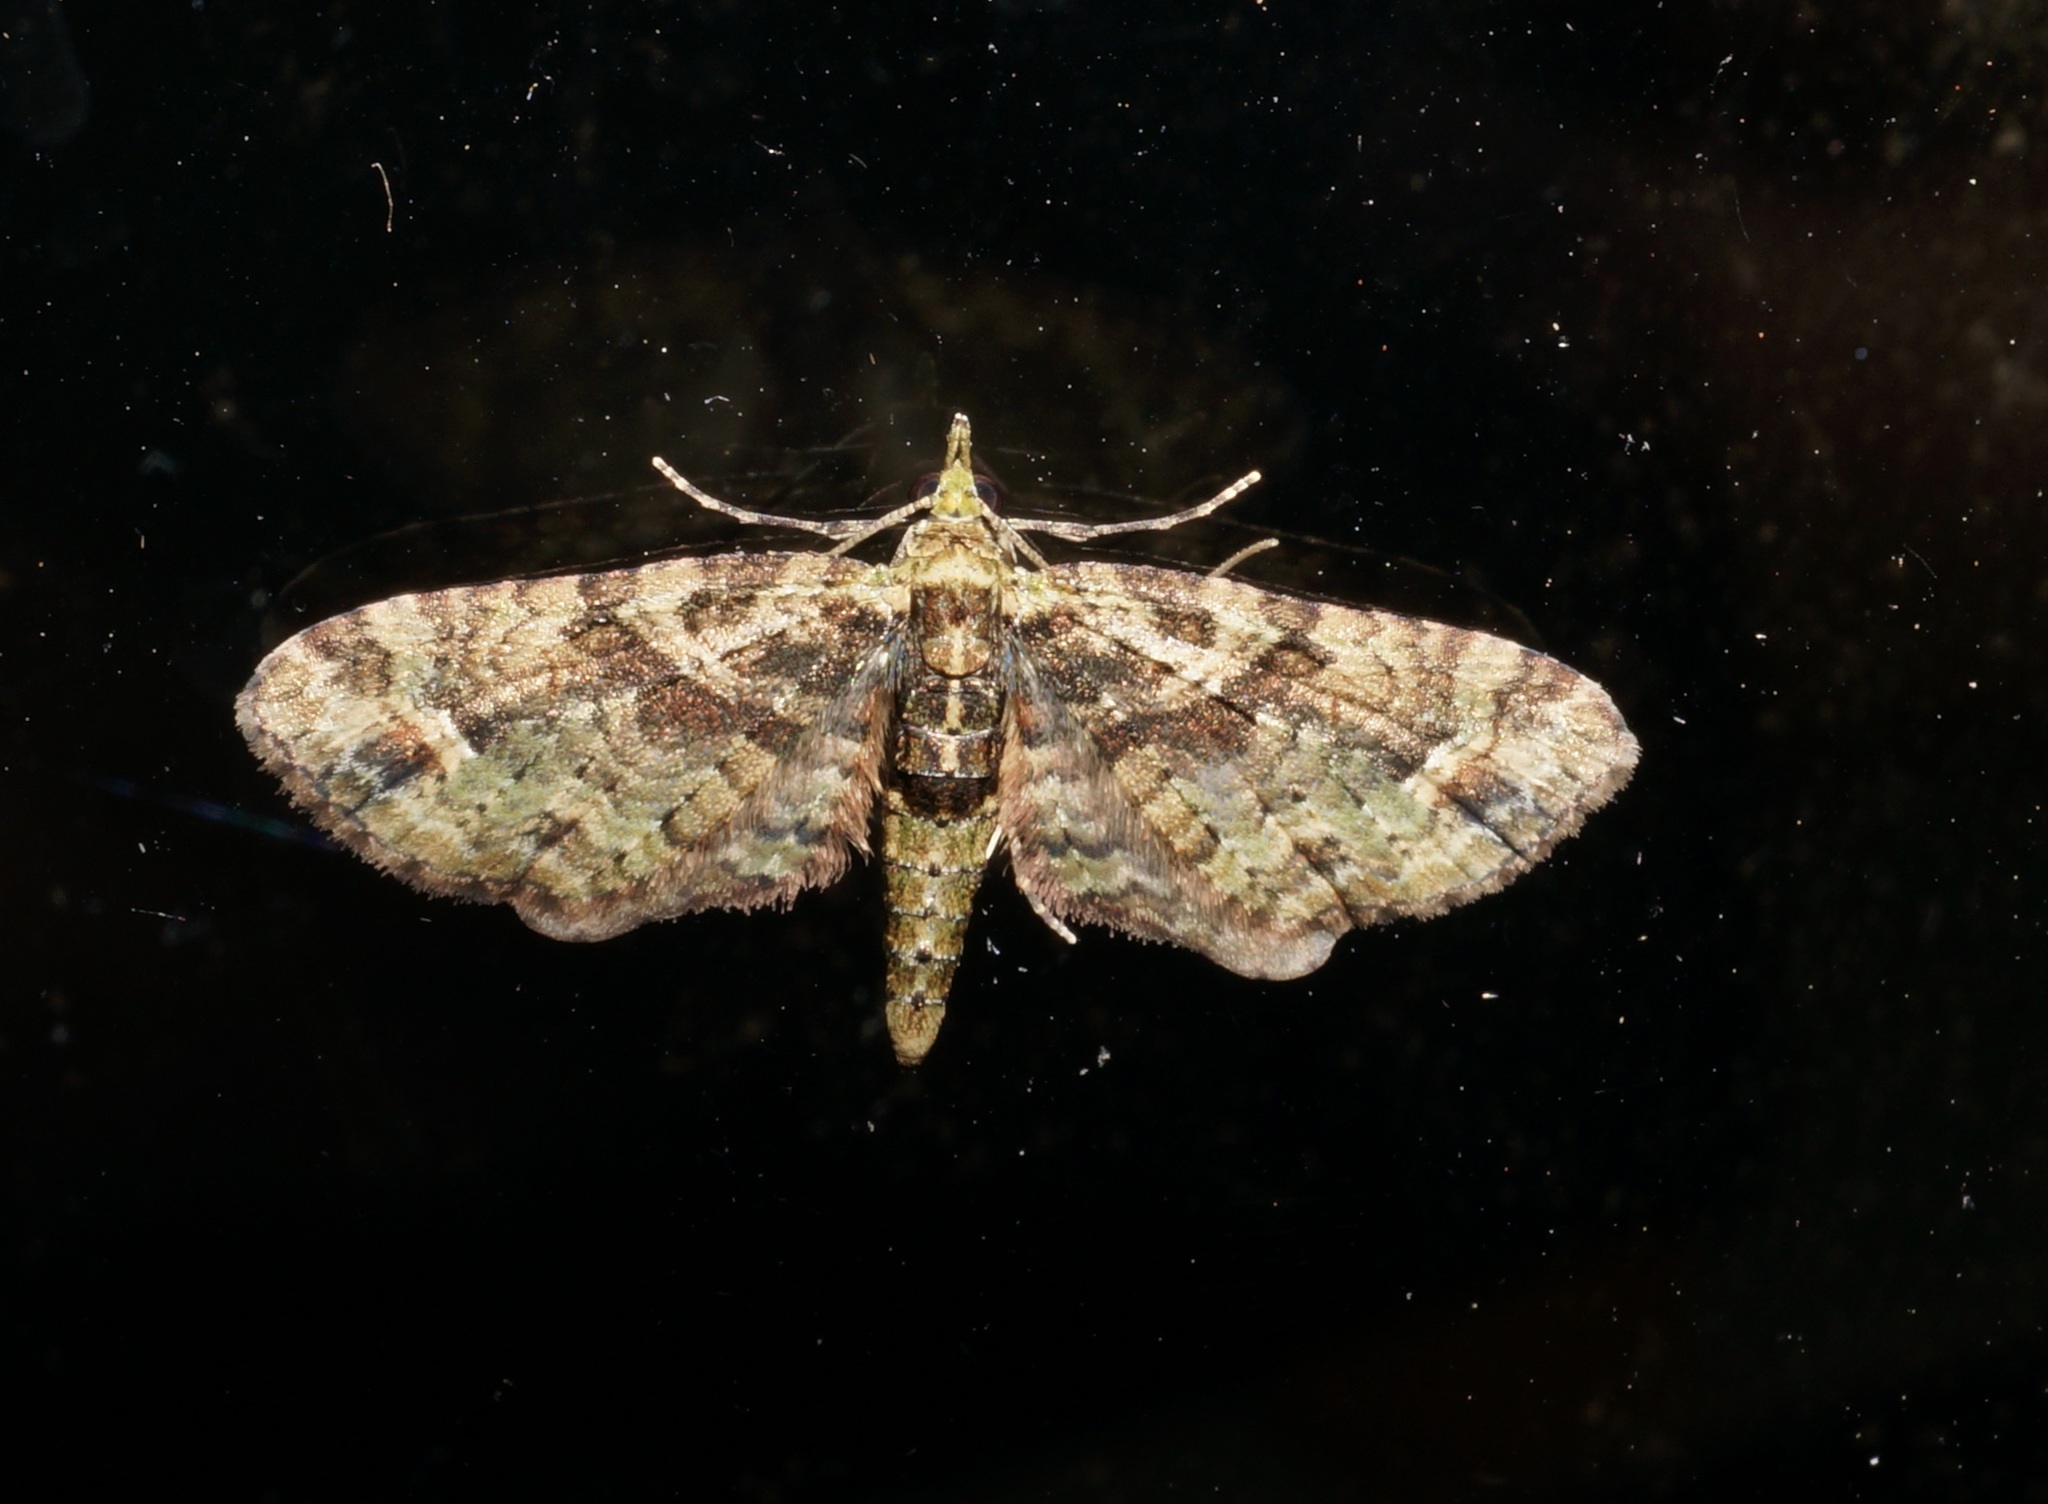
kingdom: Animalia
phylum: Arthropoda
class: Insecta
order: Lepidoptera
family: Geometridae
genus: Idaea
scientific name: Idaea mutanda
